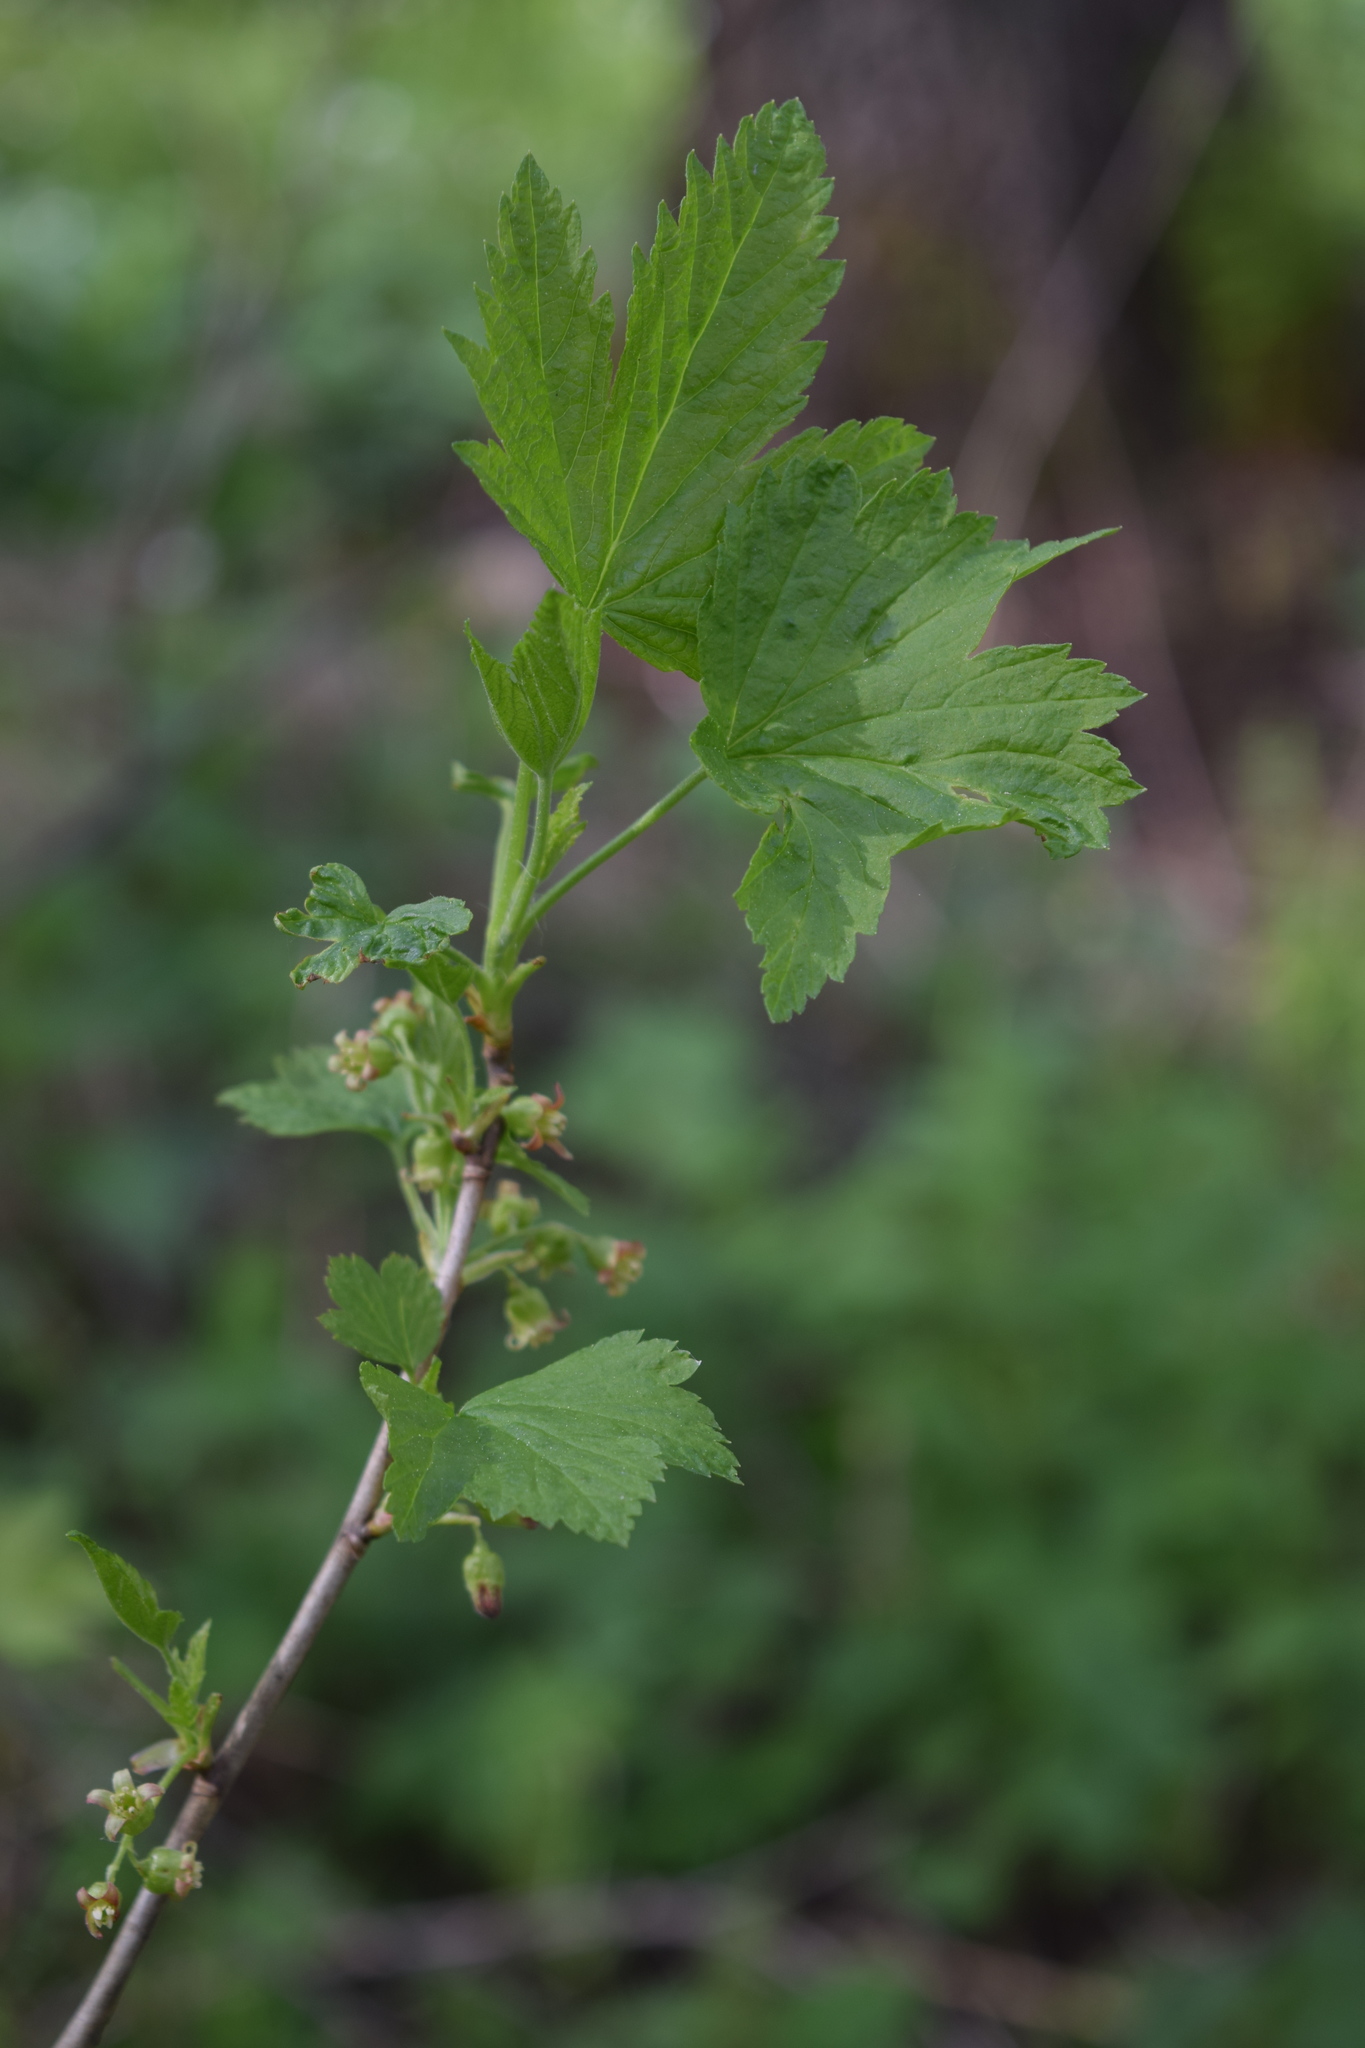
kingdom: Plantae
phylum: Tracheophyta
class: Magnoliopsida
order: Saxifragales
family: Grossulariaceae
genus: Ribes
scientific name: Ribes nigrum
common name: Black currant
